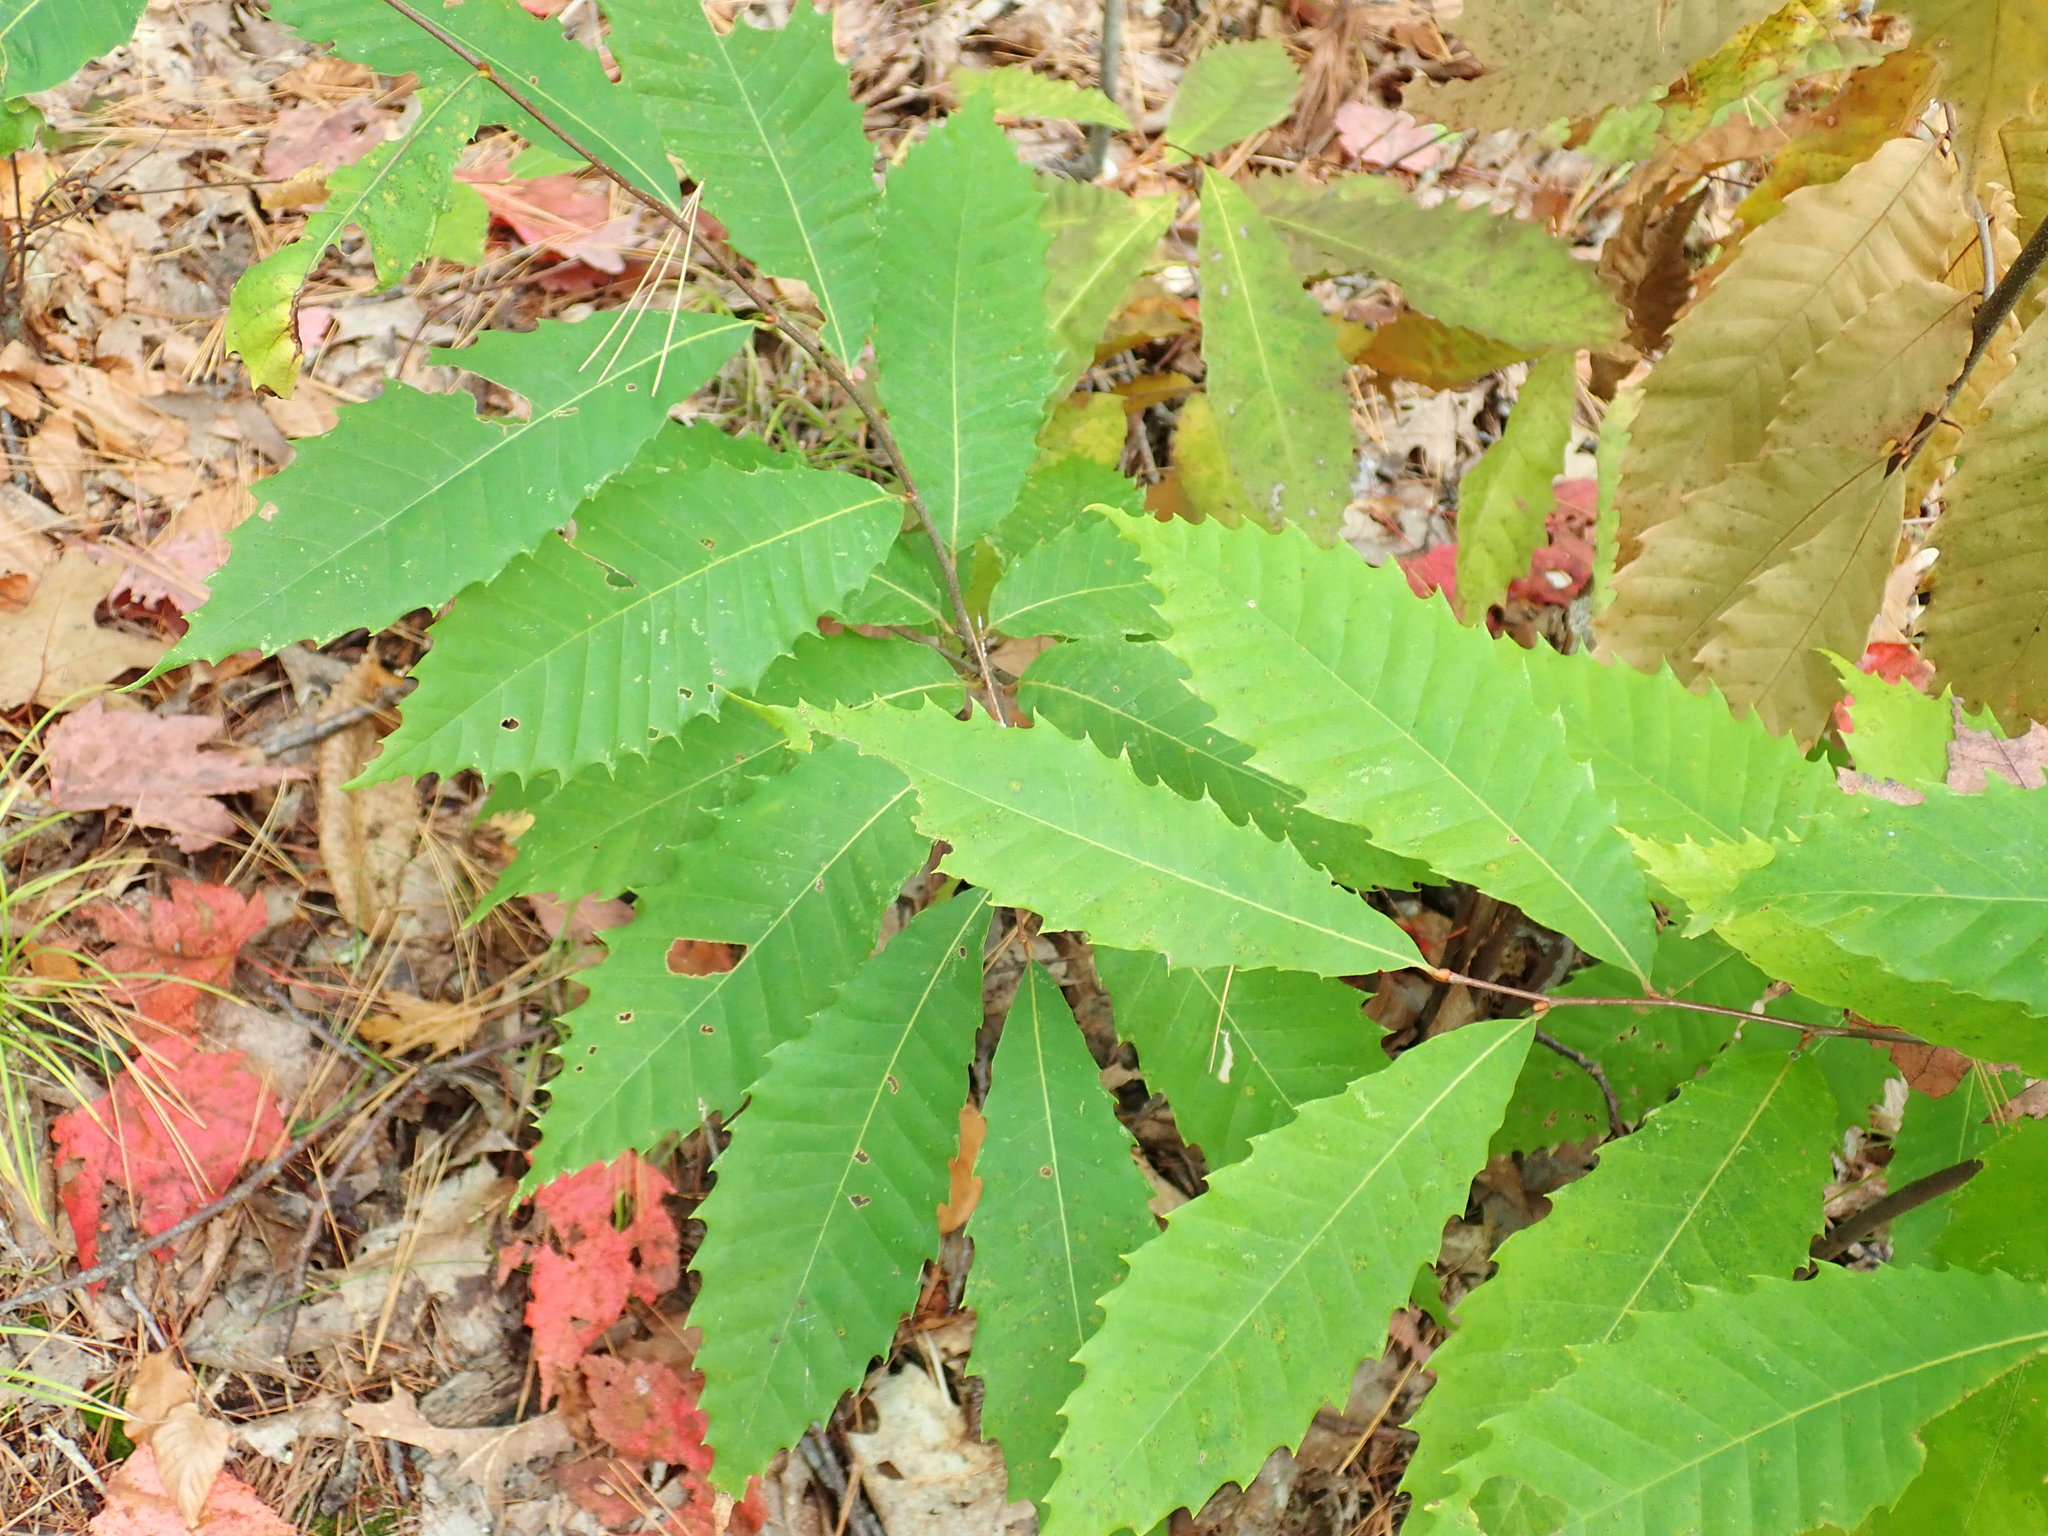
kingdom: Plantae
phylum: Tracheophyta
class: Magnoliopsida
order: Fagales
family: Fagaceae
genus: Castanea
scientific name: Castanea dentata
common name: American chestnut
